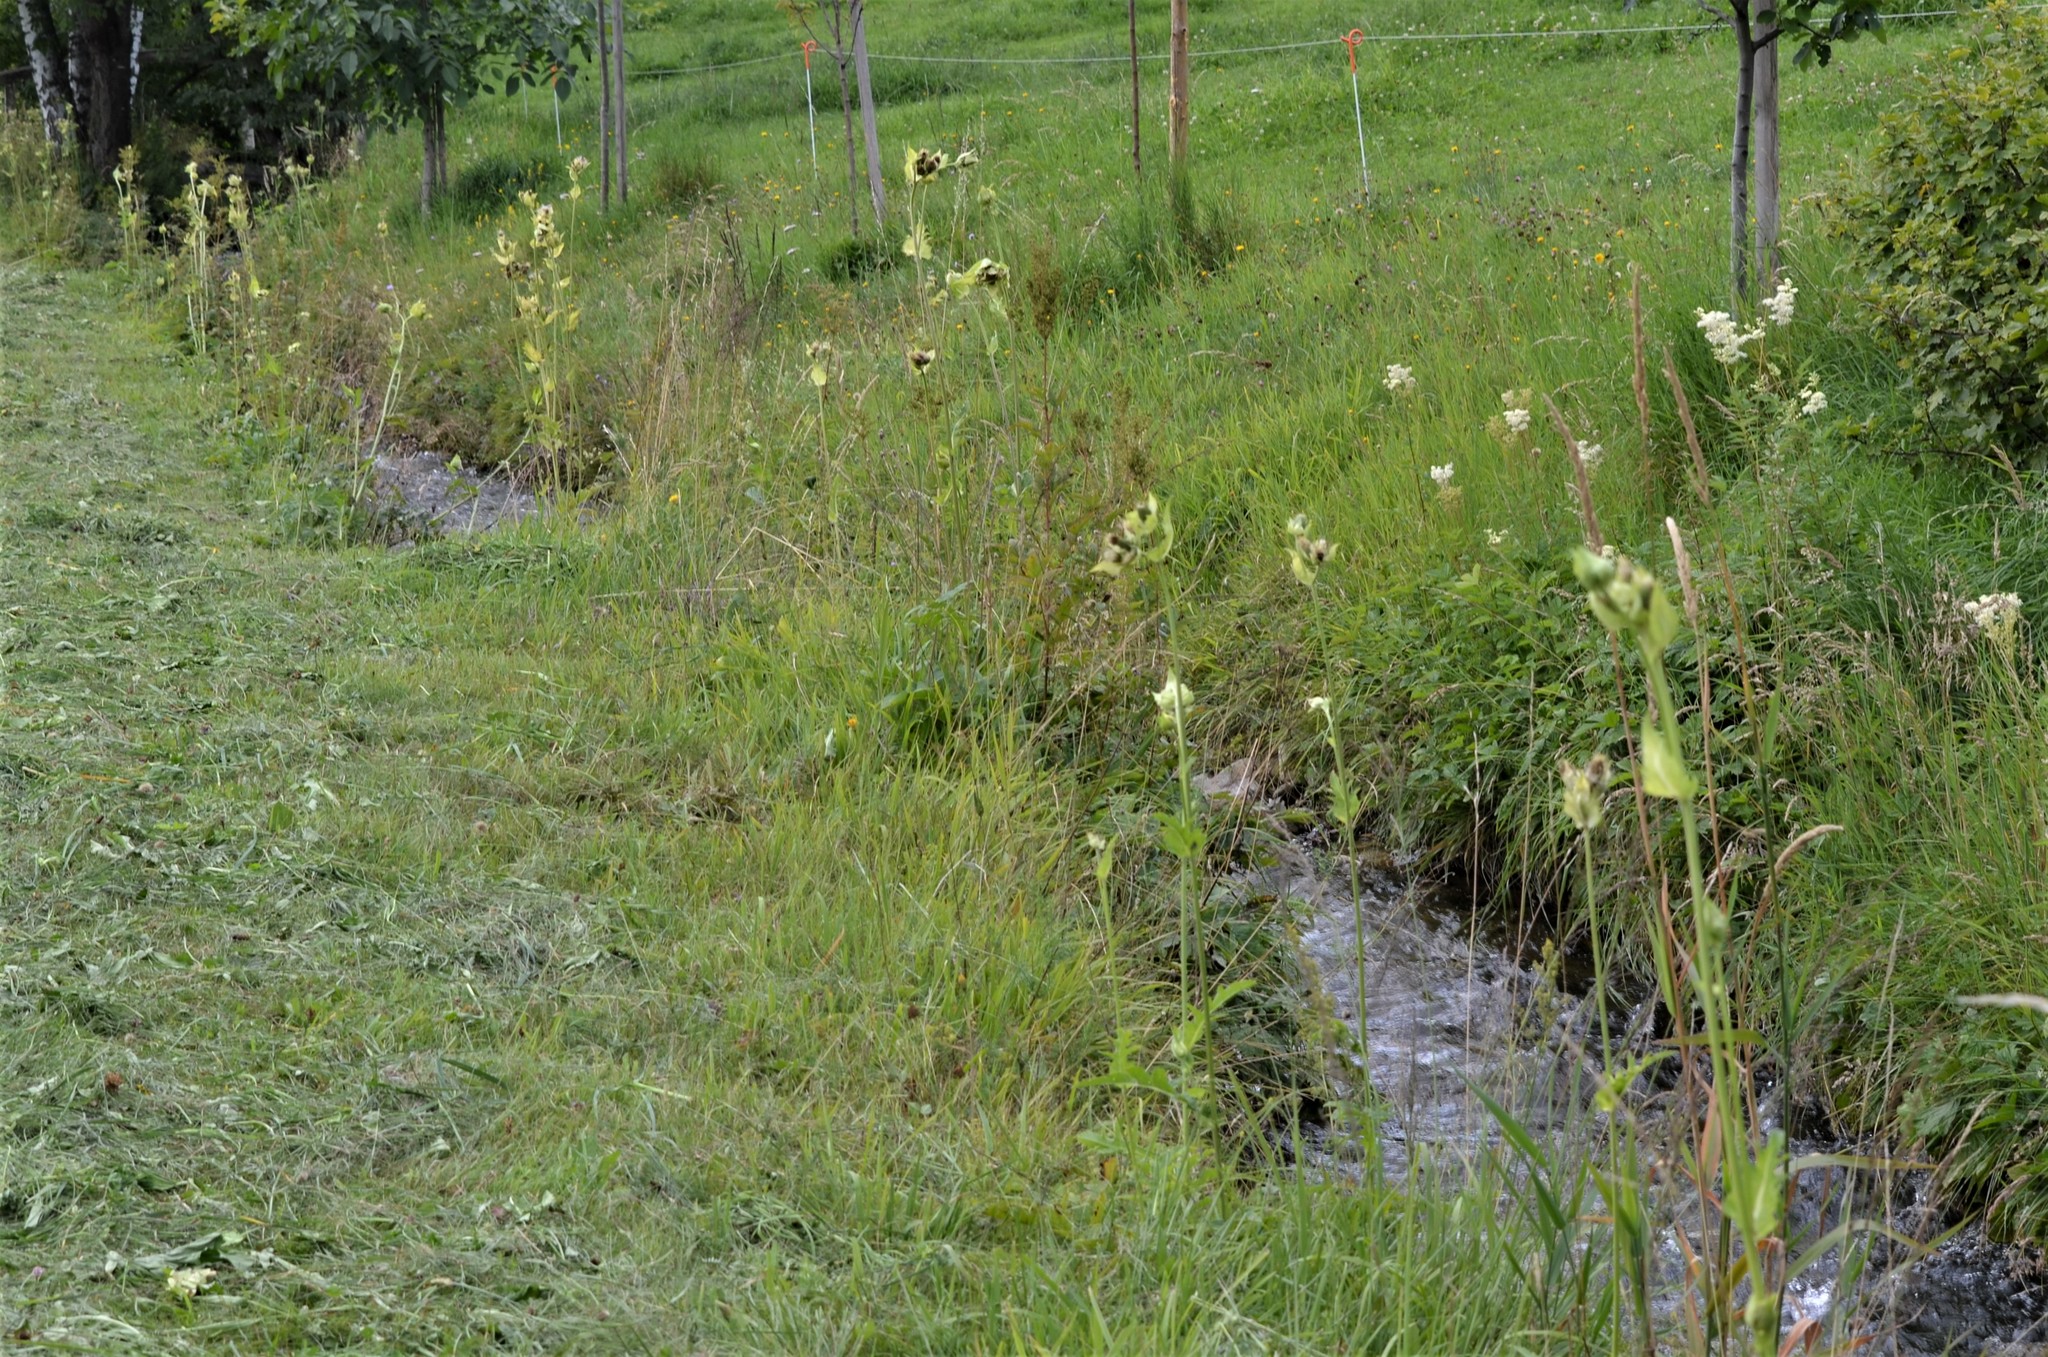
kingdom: Plantae
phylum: Tracheophyta
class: Magnoliopsida
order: Asterales
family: Asteraceae
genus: Cirsium
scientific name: Cirsium oleraceum
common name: Cabbage thistle
